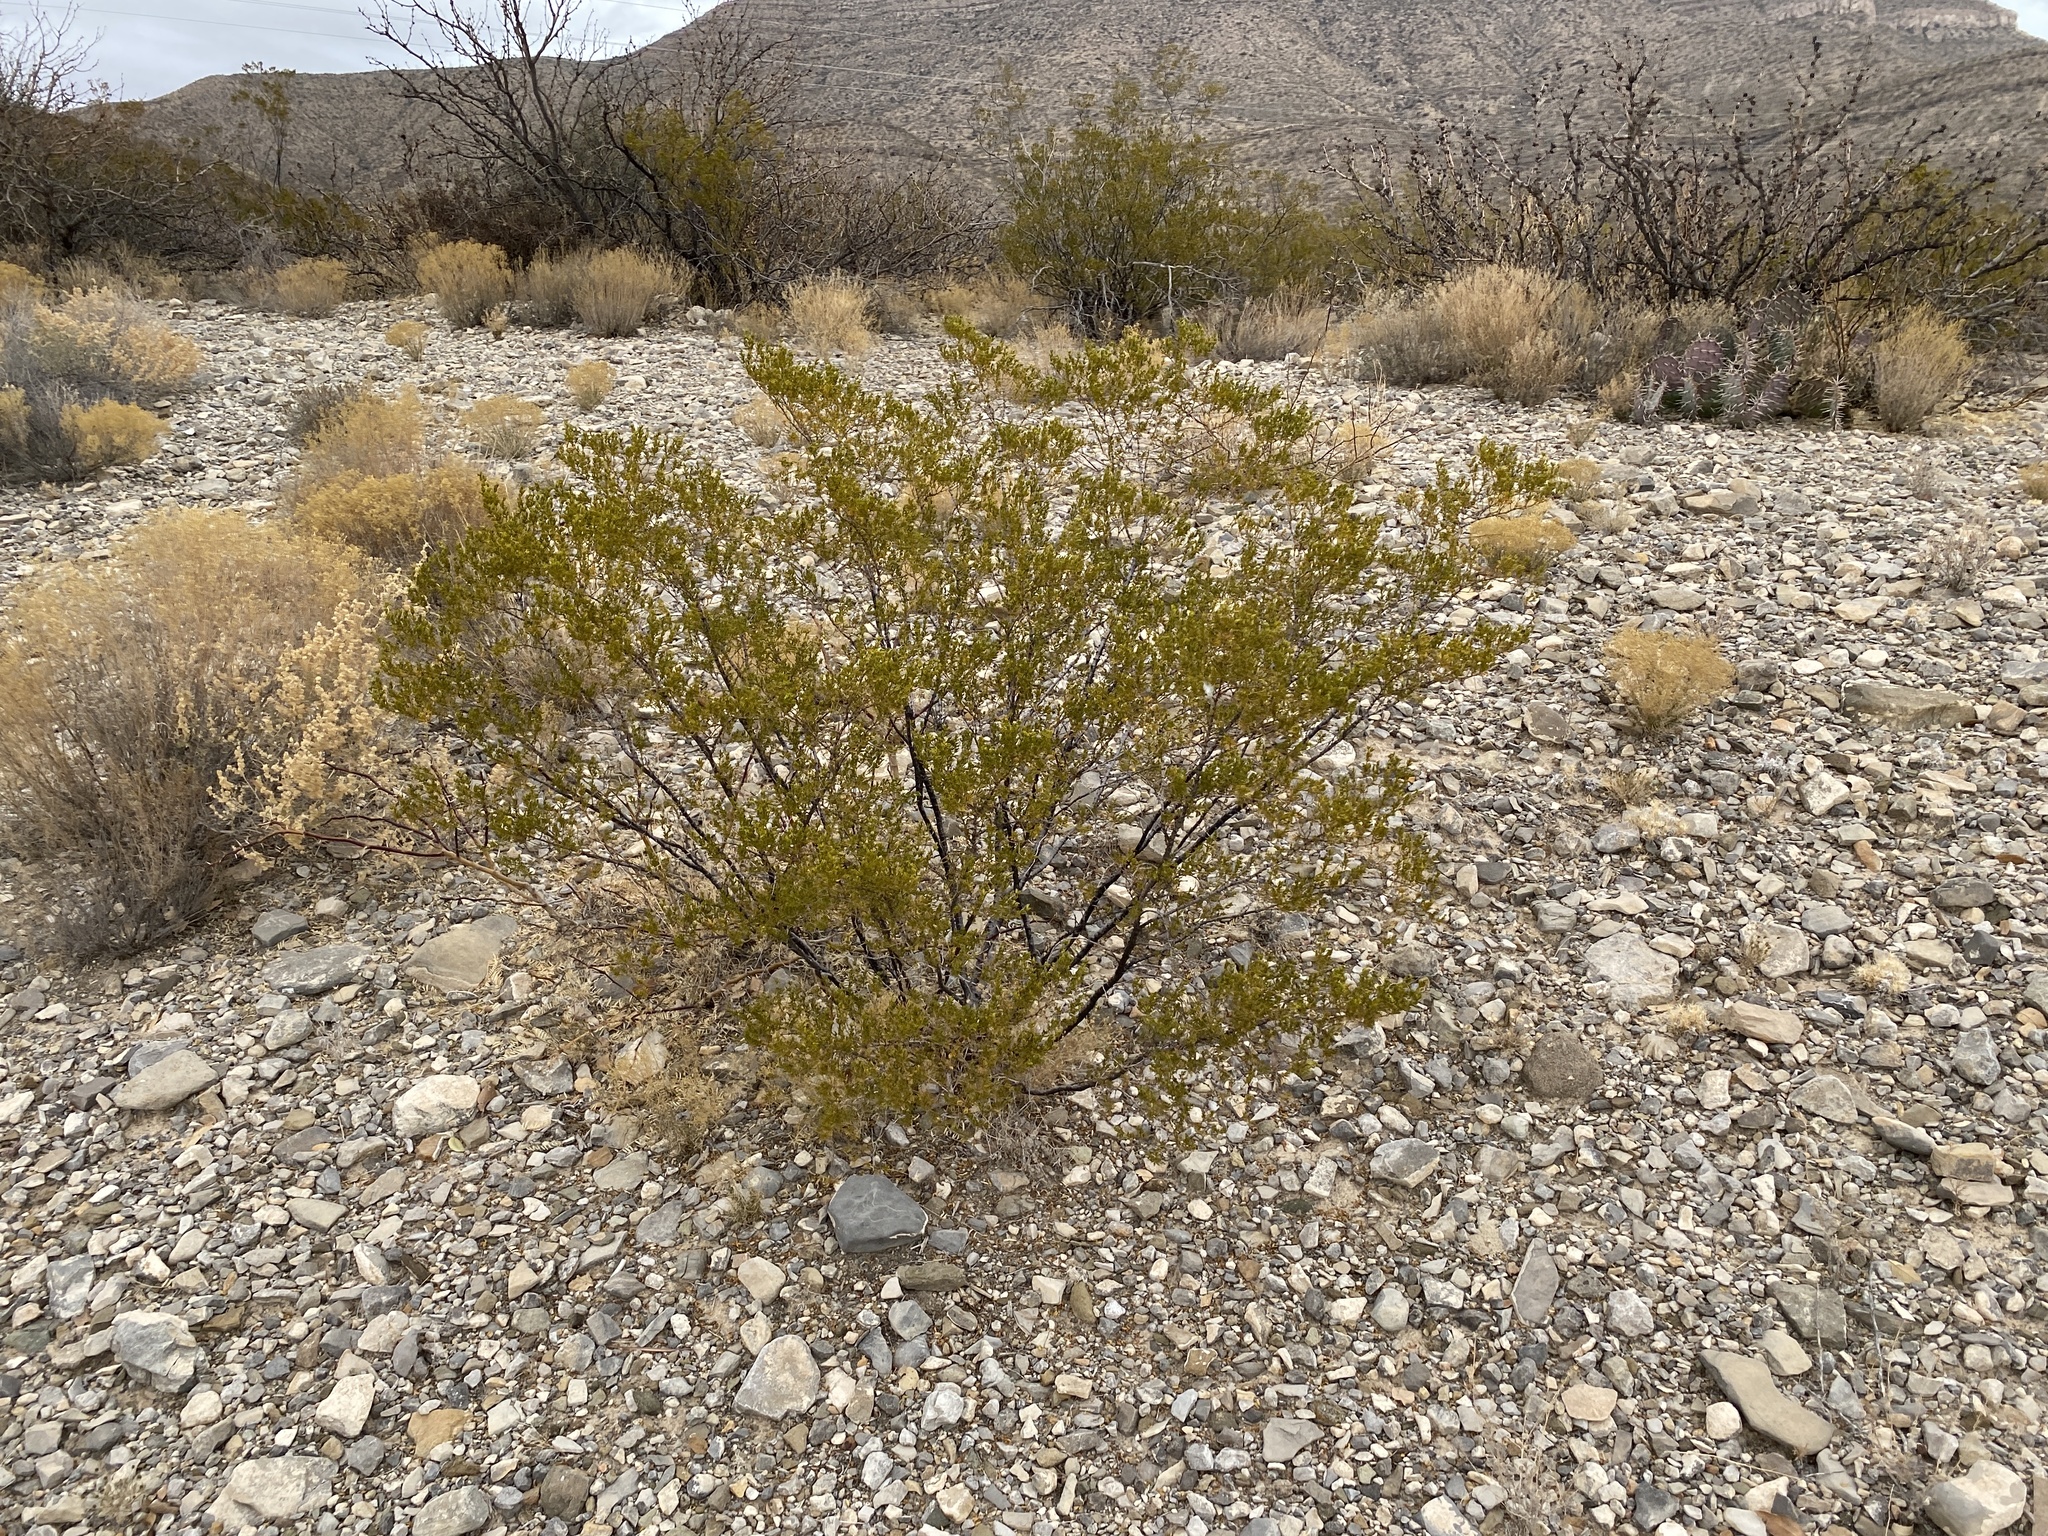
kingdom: Plantae
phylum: Tracheophyta
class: Magnoliopsida
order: Zygophyllales
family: Zygophyllaceae
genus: Larrea
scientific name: Larrea tridentata
